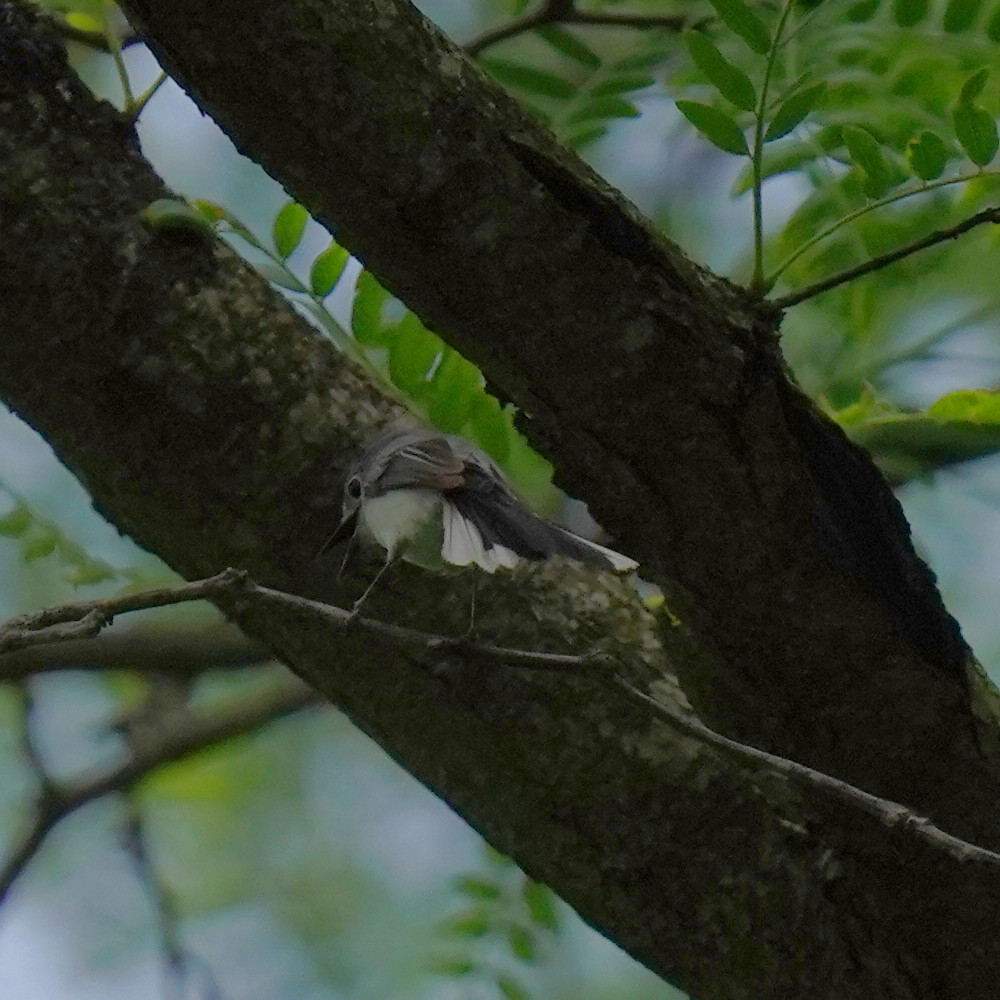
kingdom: Animalia
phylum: Chordata
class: Aves
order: Passeriformes
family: Polioptilidae
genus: Polioptila
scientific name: Polioptila caerulea
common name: Blue-gray gnatcatcher
